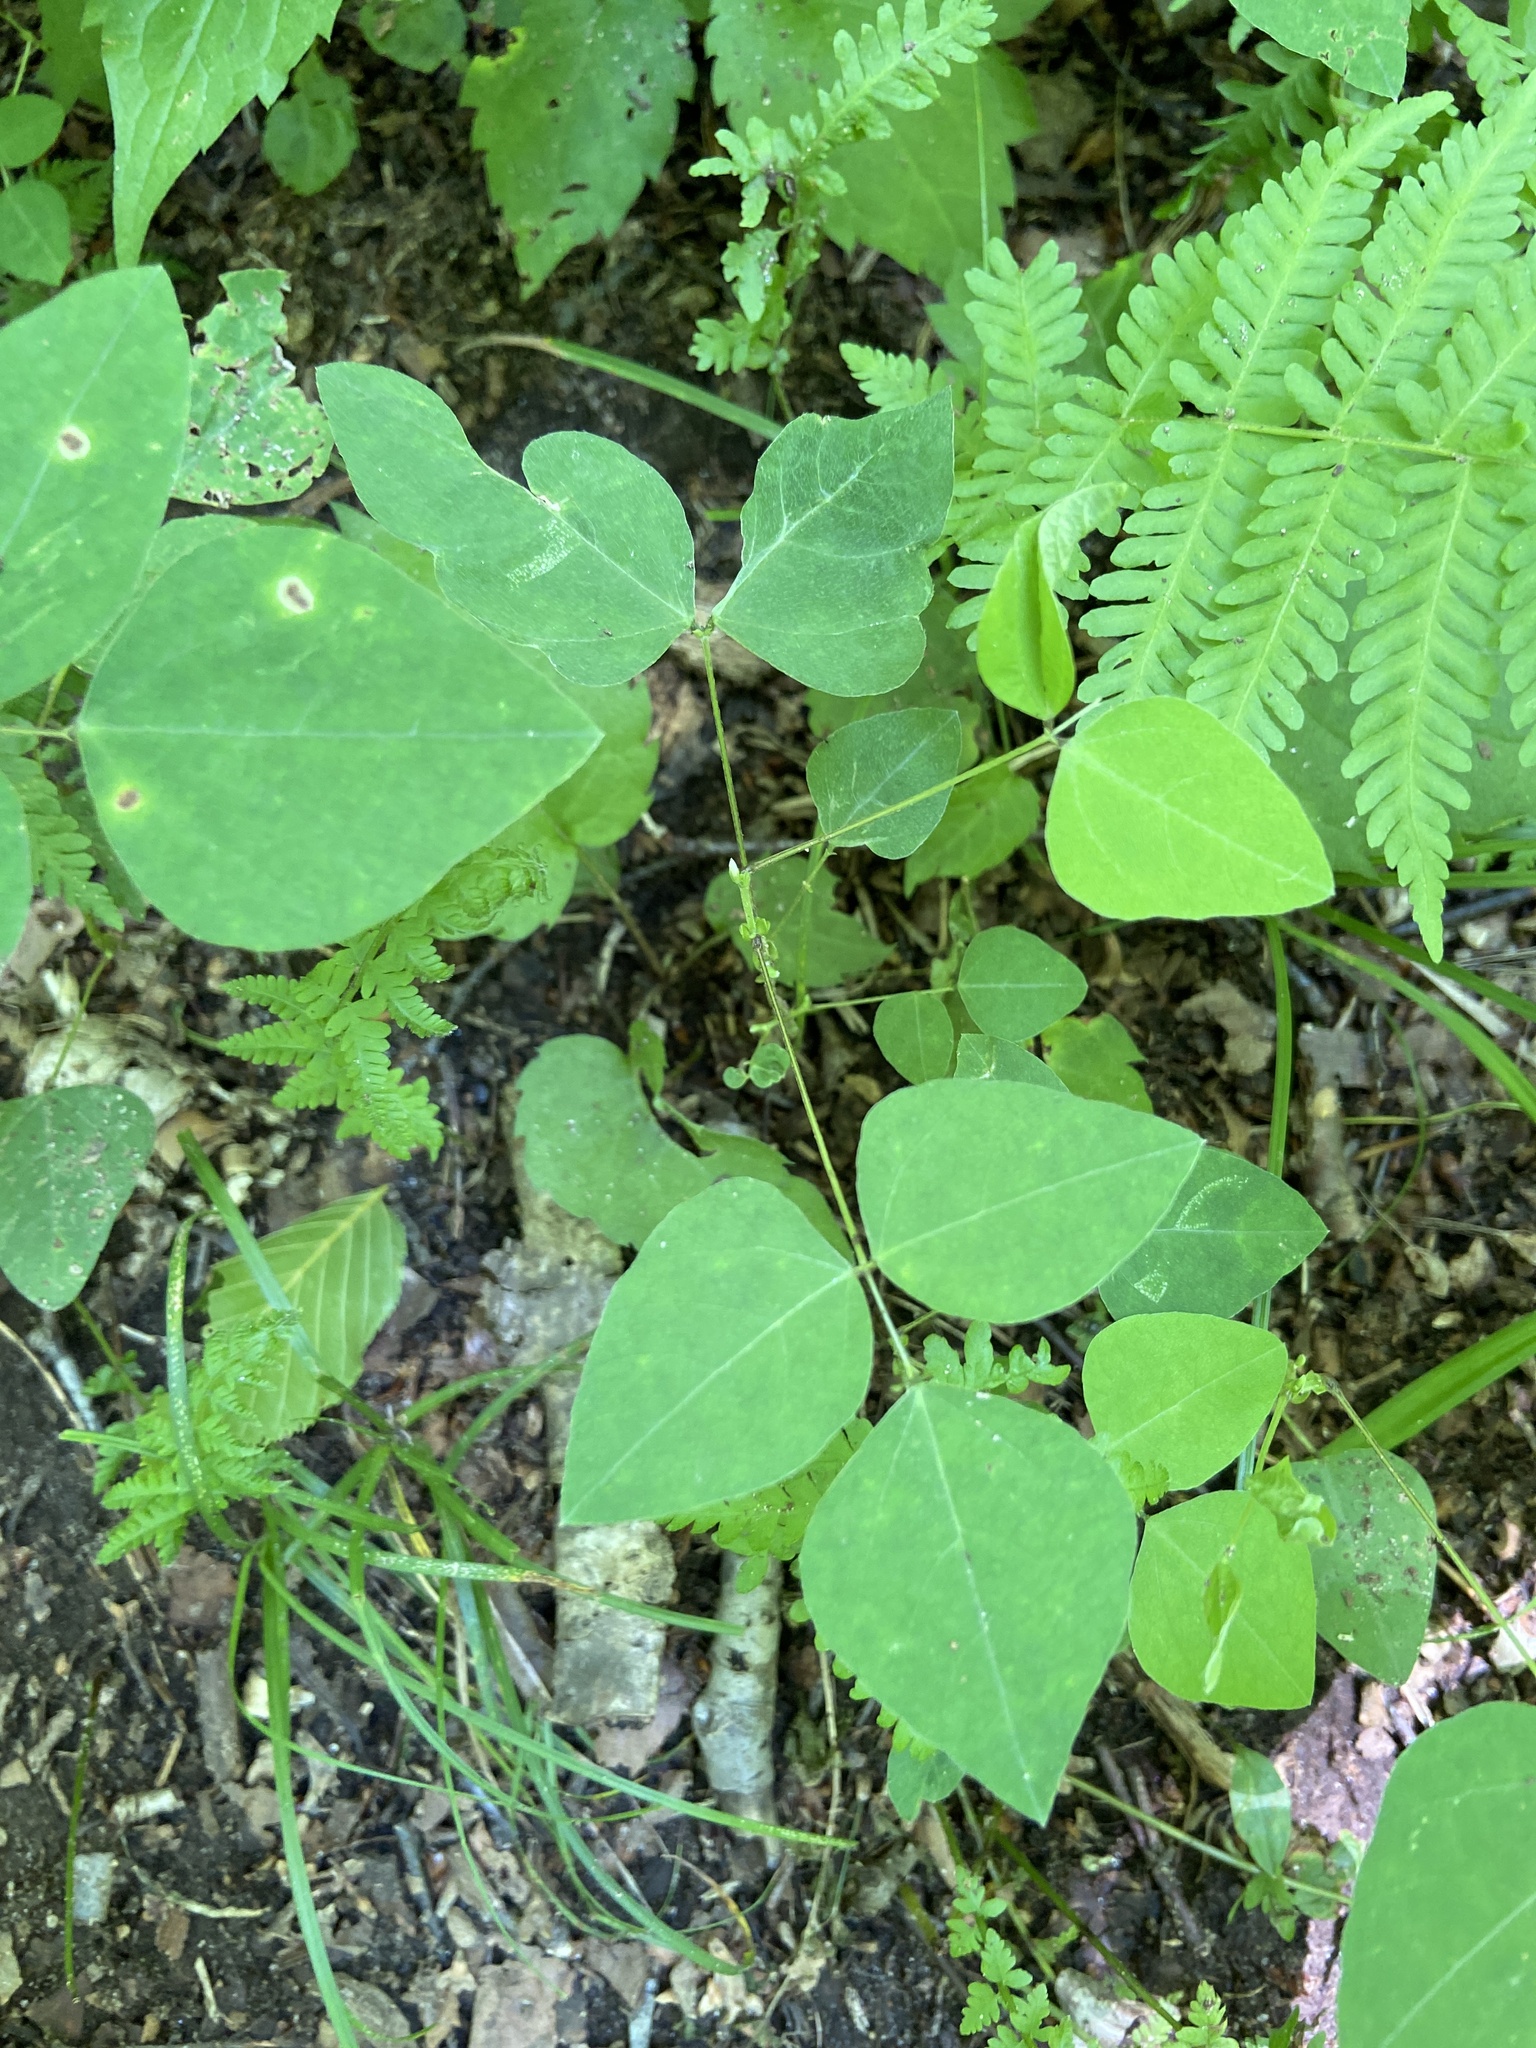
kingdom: Plantae
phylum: Tracheophyta
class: Magnoliopsida
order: Fabales
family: Fabaceae
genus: Amphicarpaea
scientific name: Amphicarpaea bracteata
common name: American hog peanut
